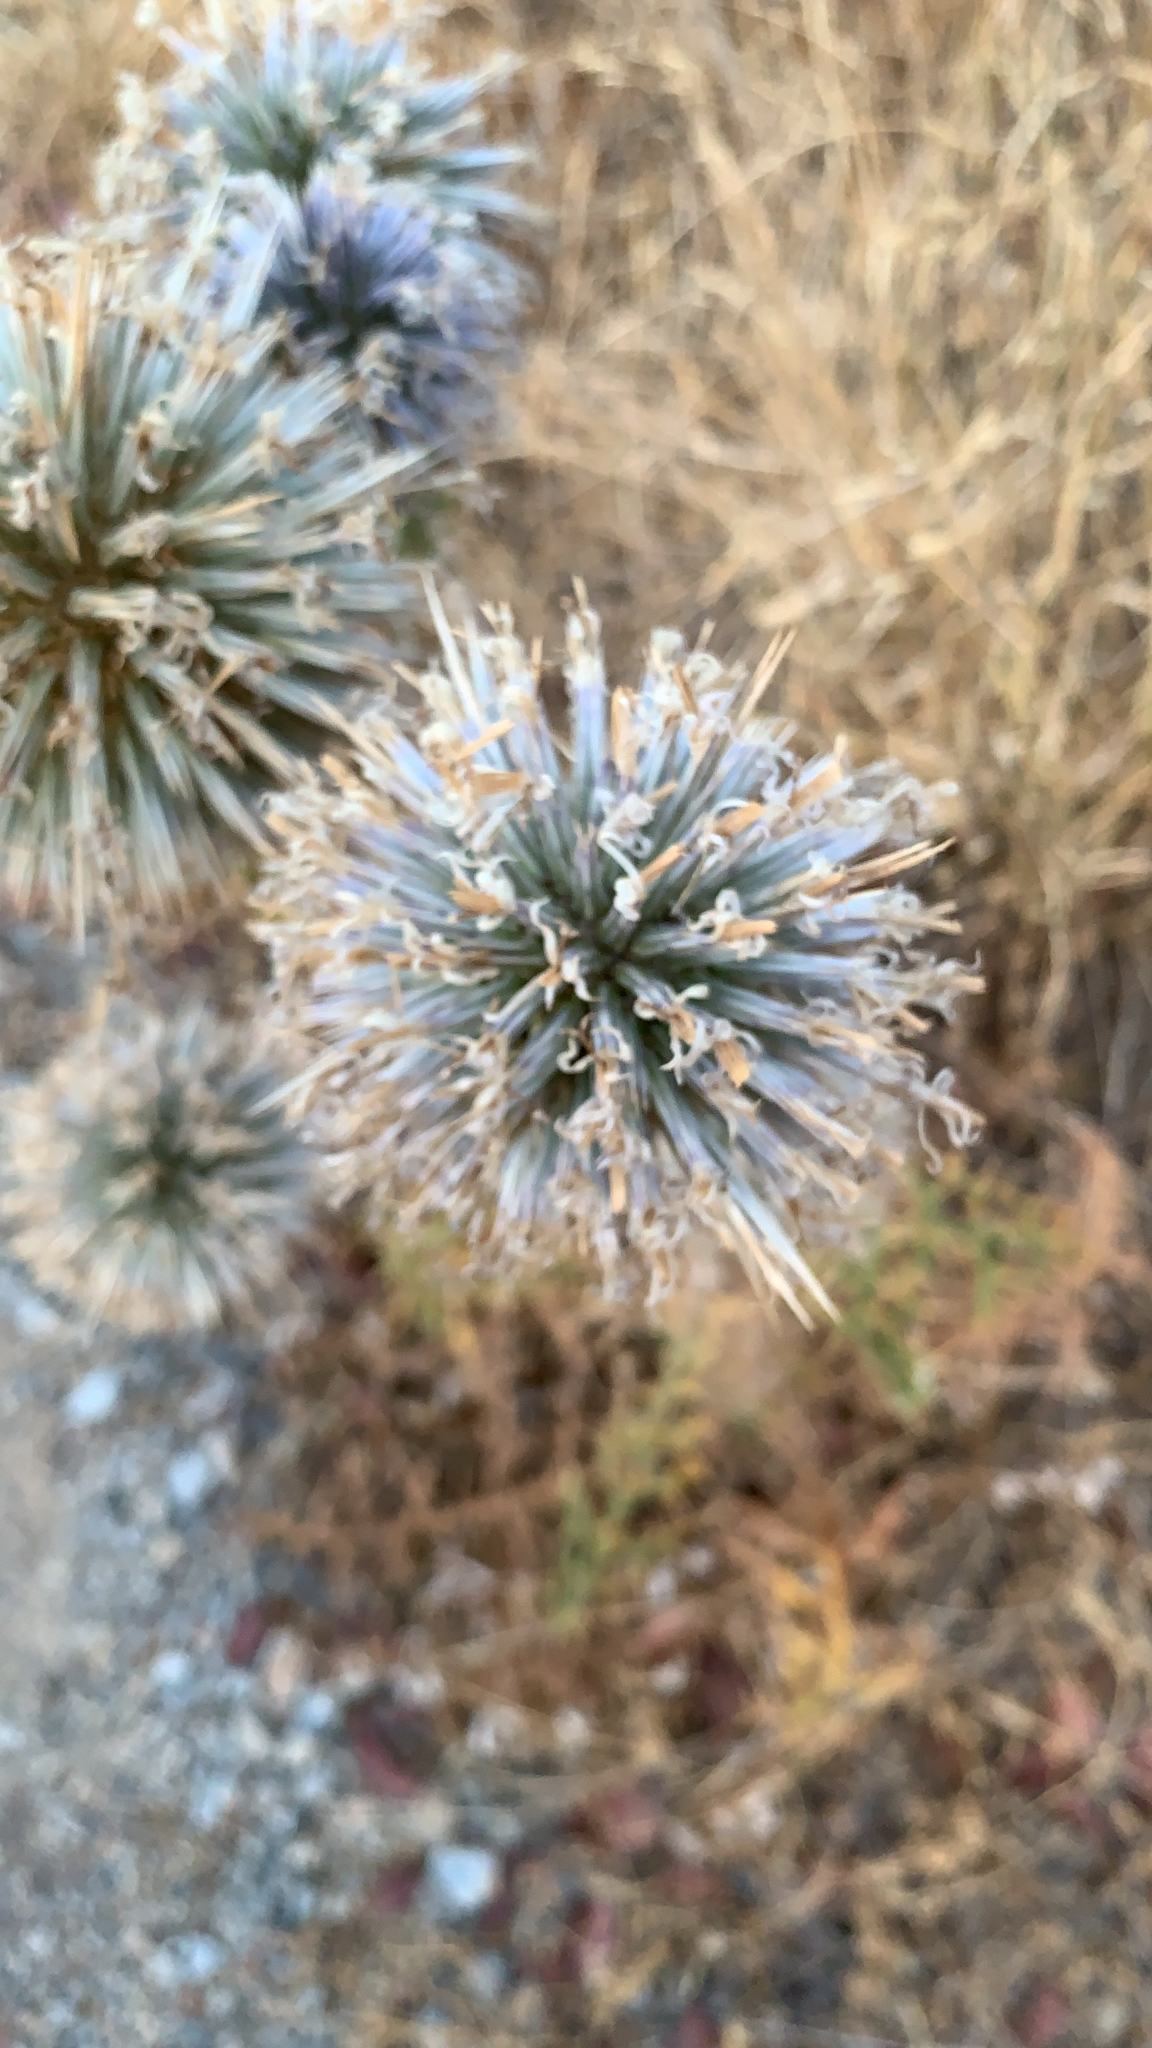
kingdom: Plantae
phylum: Tracheophyta
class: Magnoliopsida
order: Asterales
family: Asteraceae
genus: Echinops
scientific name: Echinops spinosissimus
